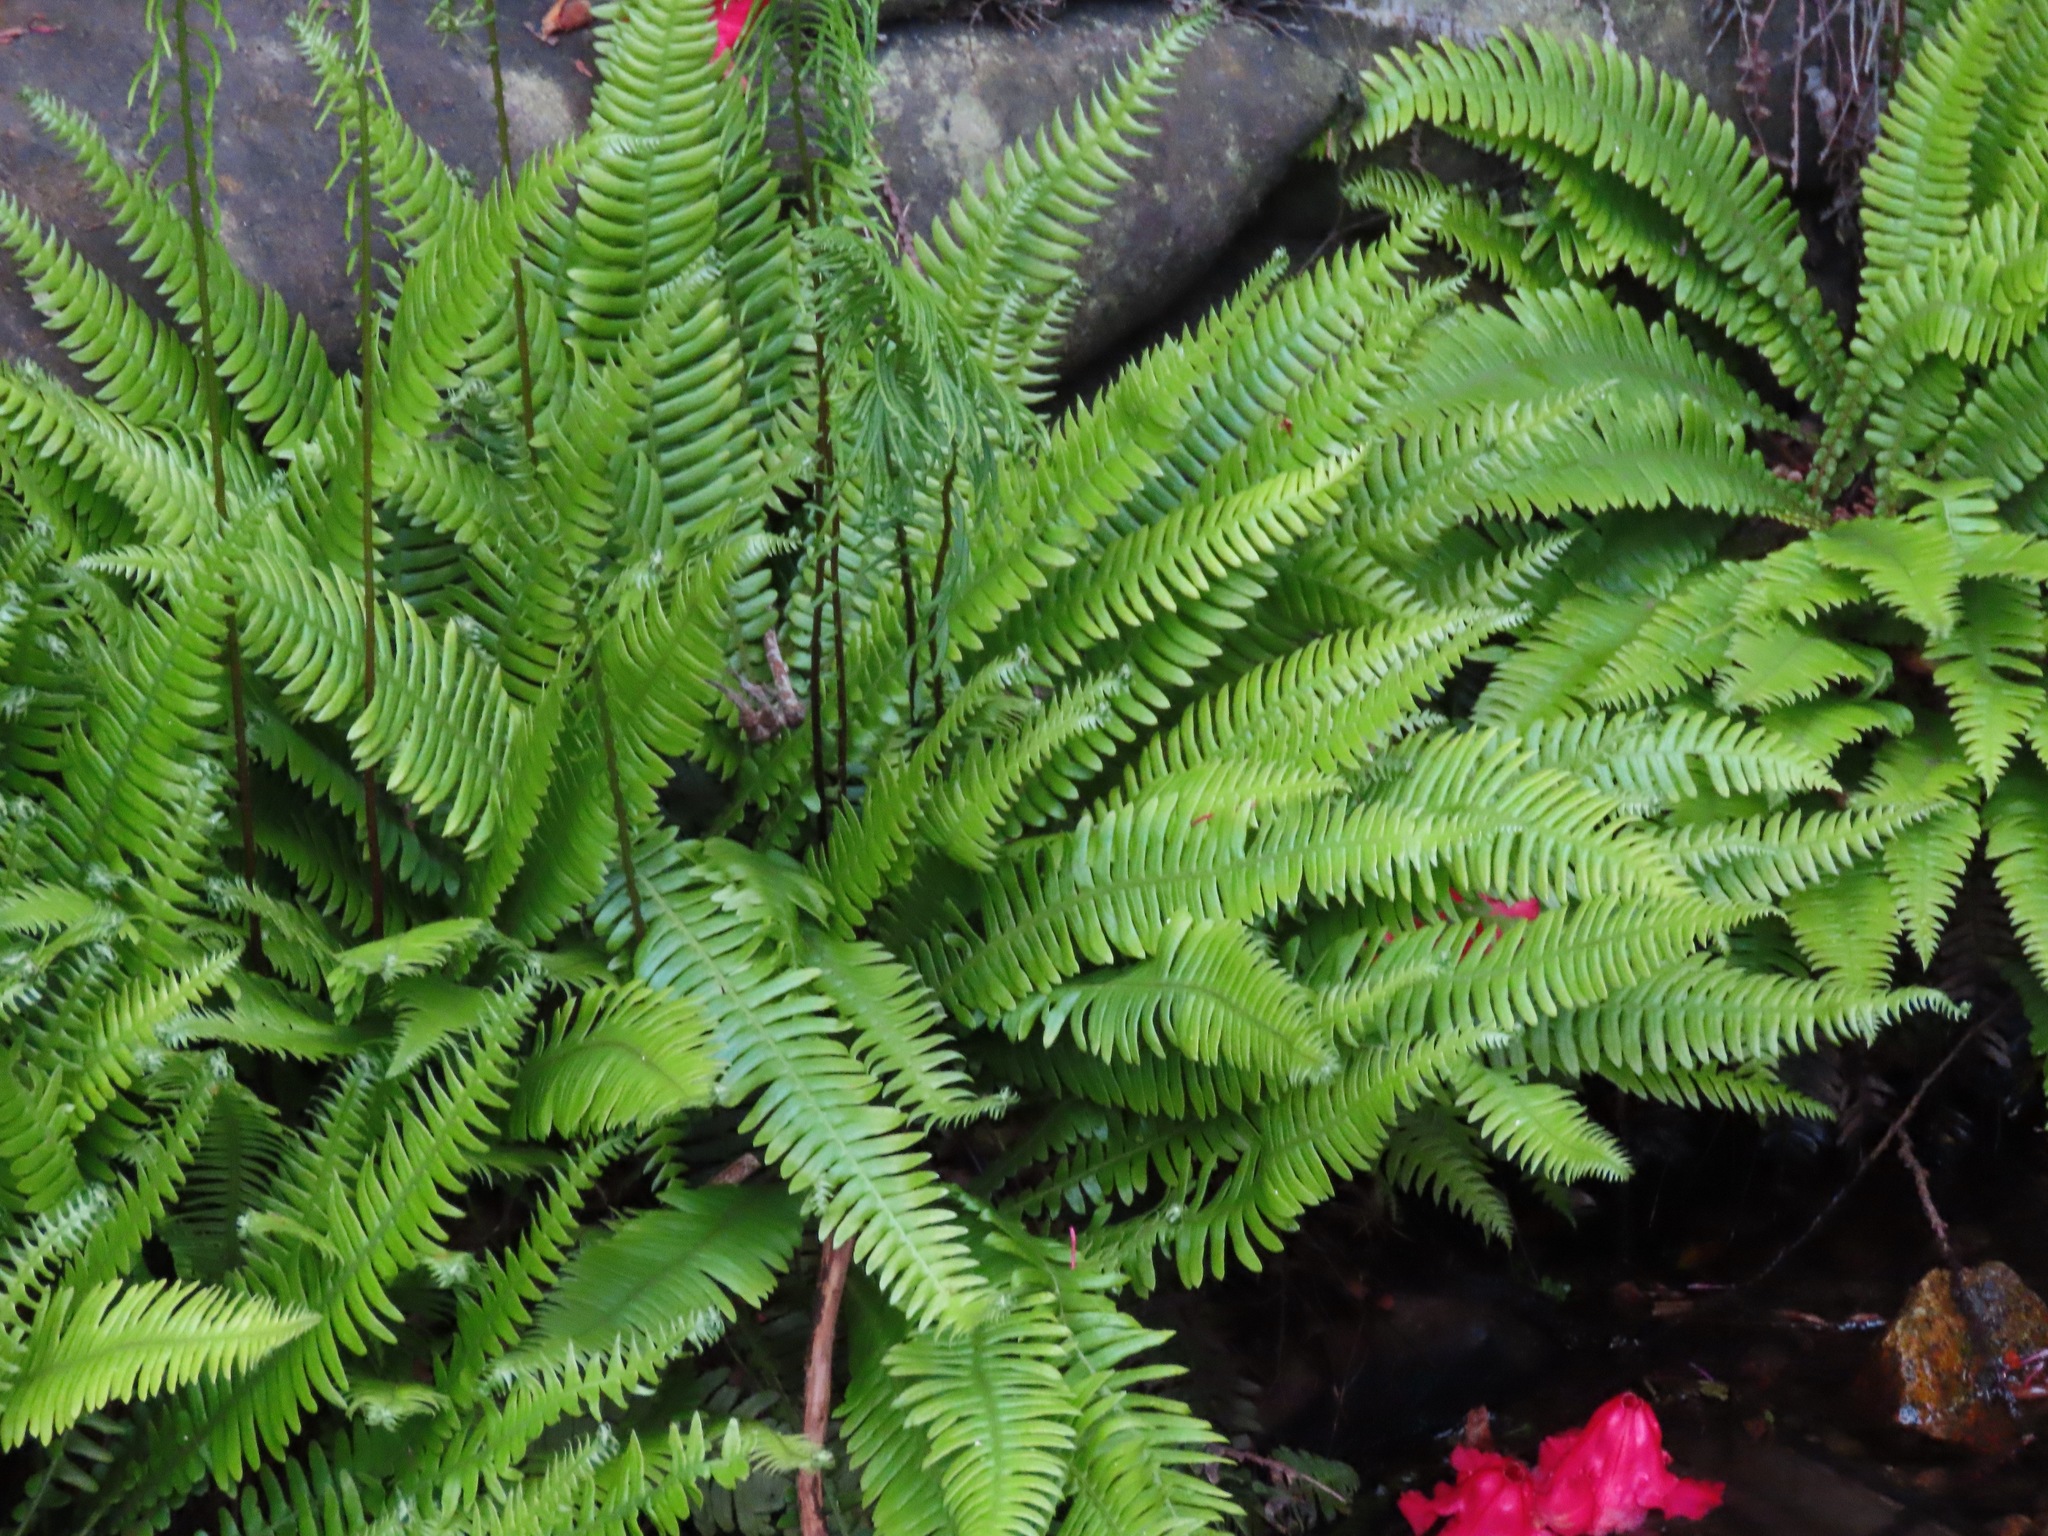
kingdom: Plantae
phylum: Tracheophyta
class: Polypodiopsida
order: Polypodiales
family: Blechnaceae
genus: Struthiopteris
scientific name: Struthiopteris spicant
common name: Deer fern
